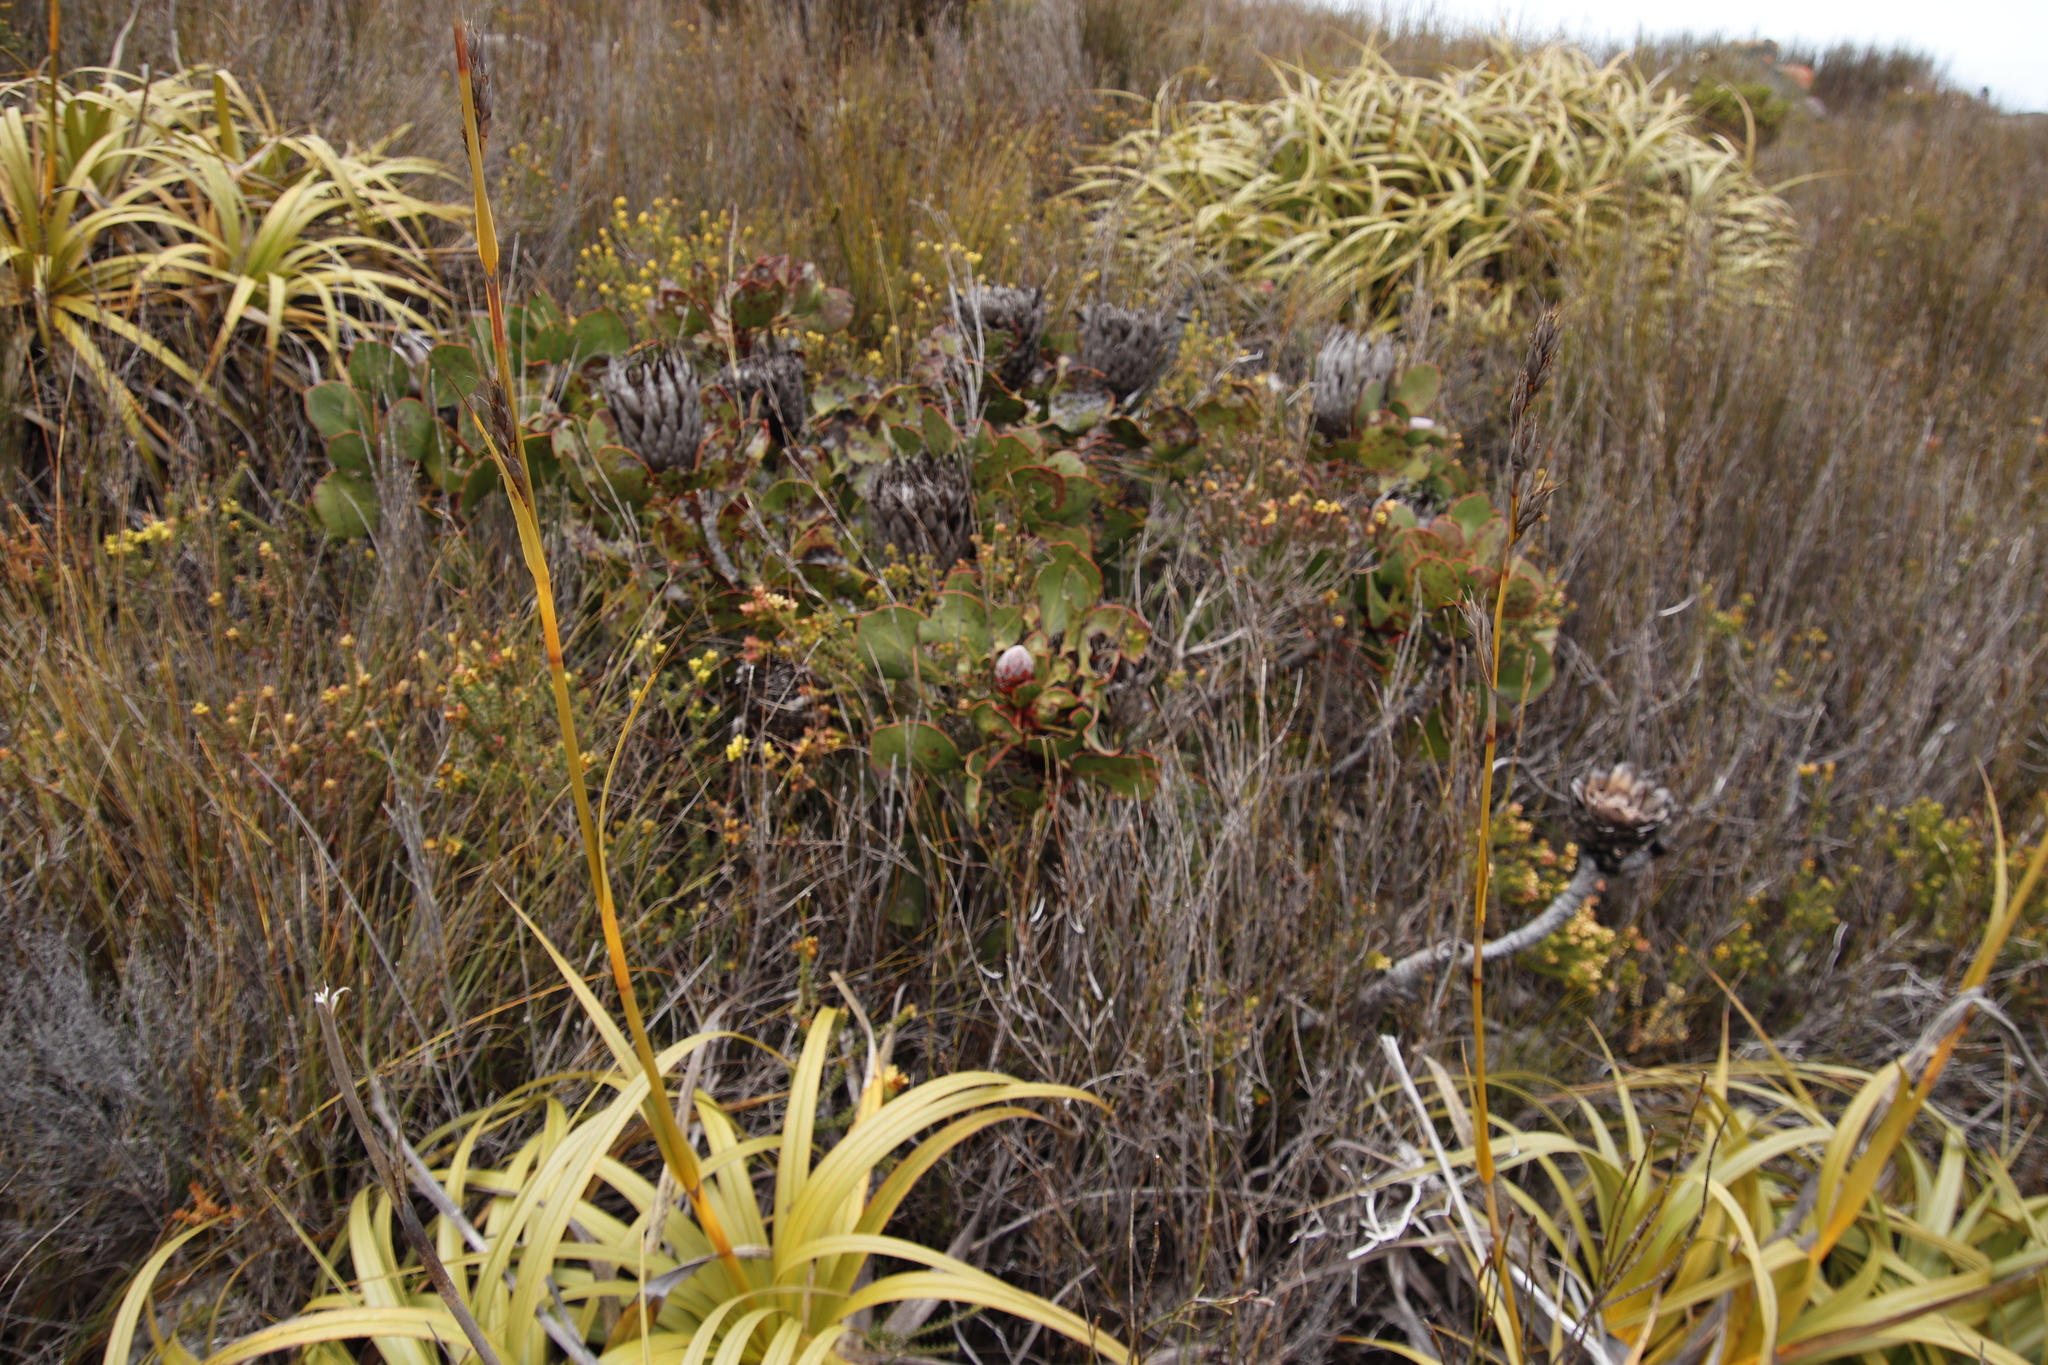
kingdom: Plantae
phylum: Tracheophyta
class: Magnoliopsida
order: Proteales
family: Proteaceae
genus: Protea
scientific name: Protea cynaroides
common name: King protea
